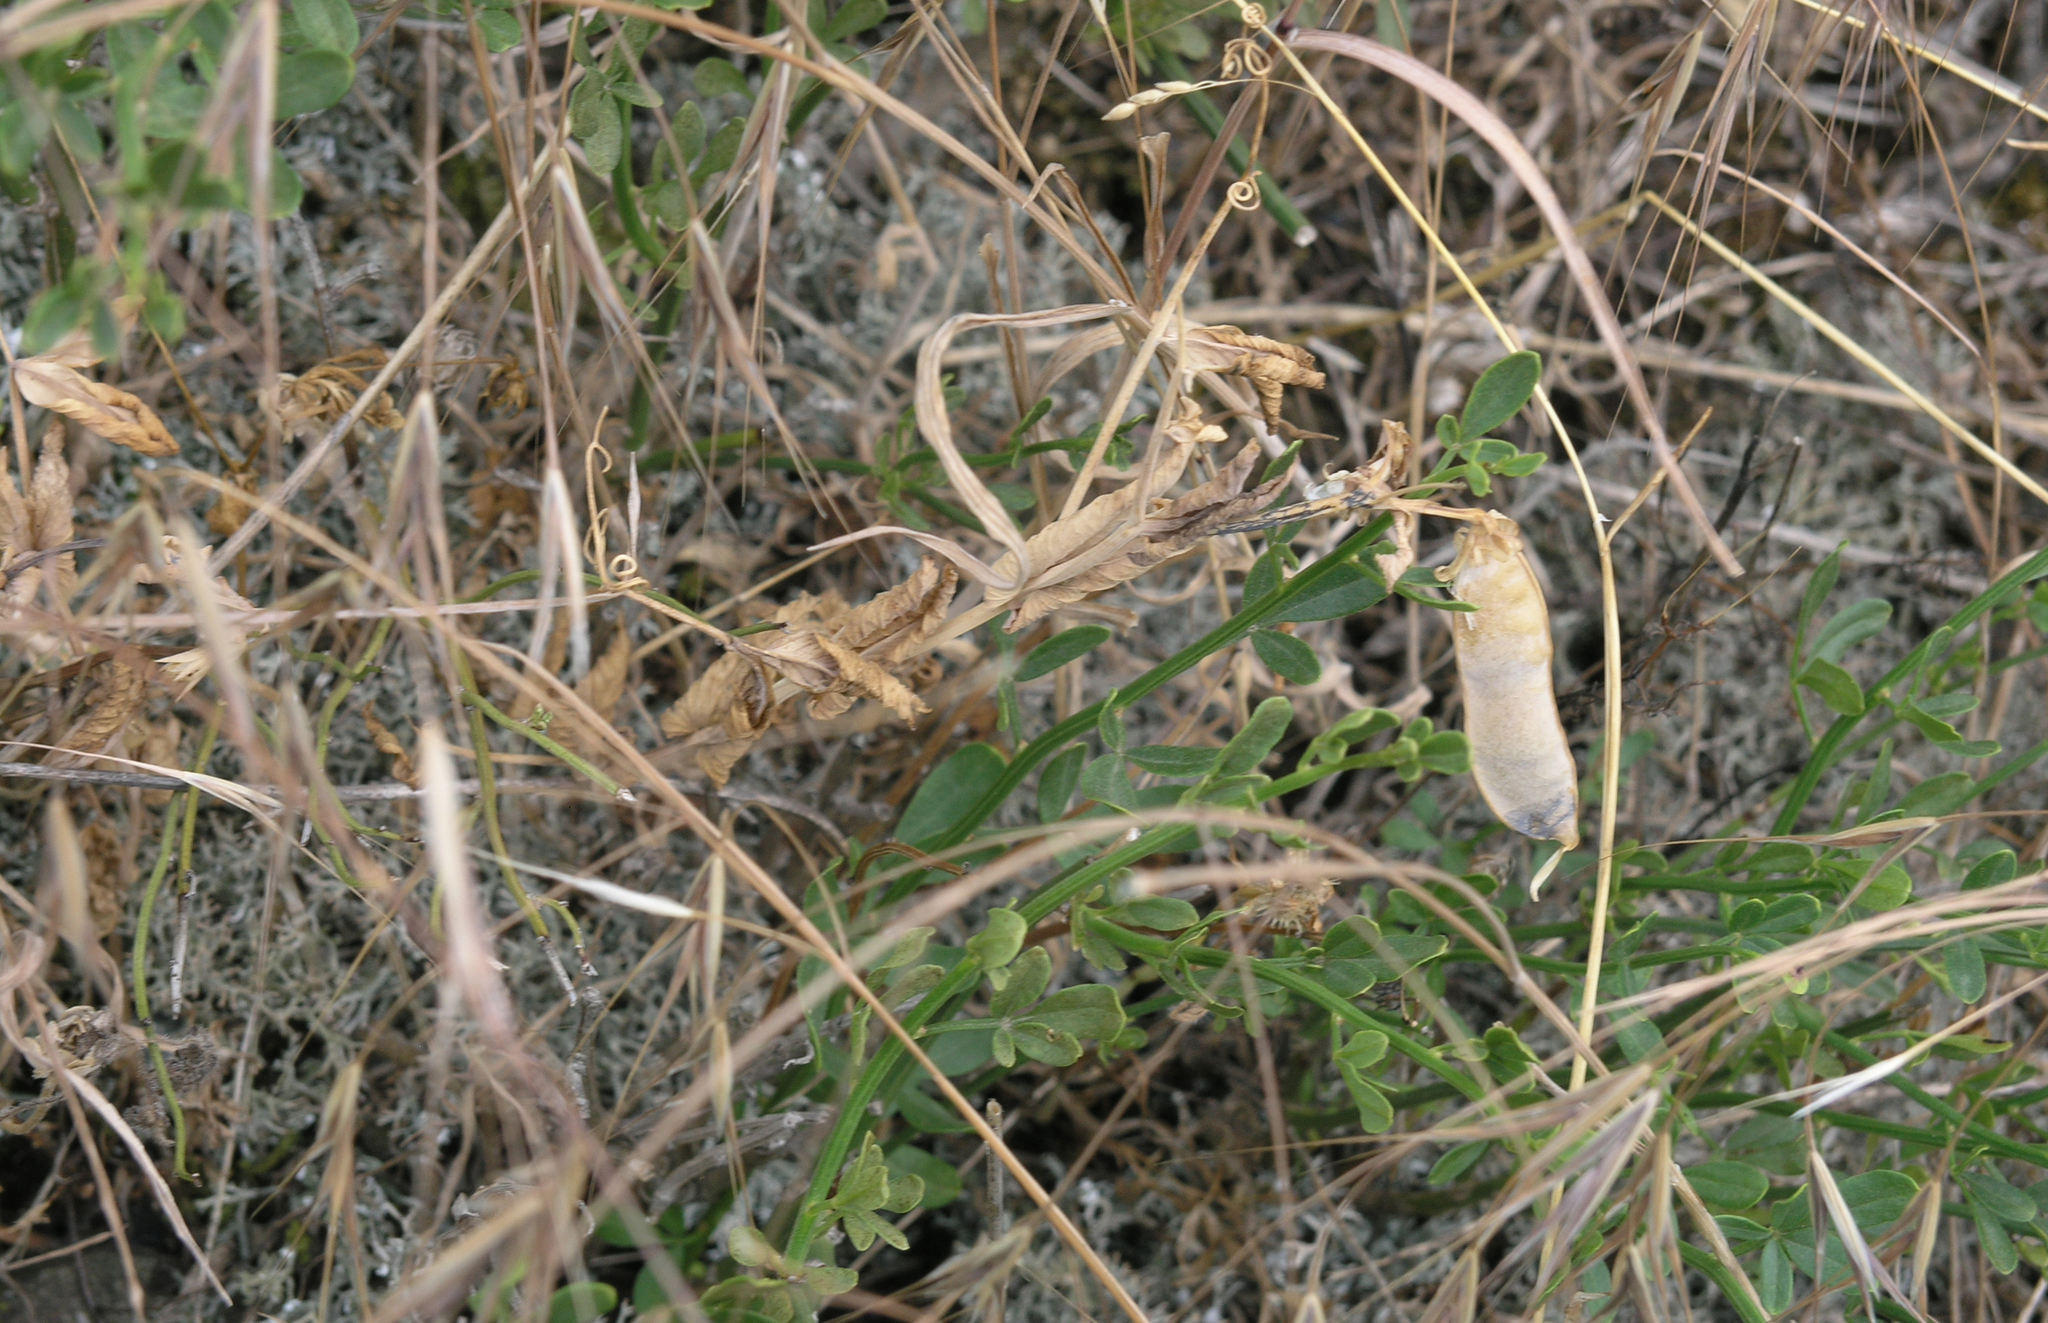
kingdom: Plantae
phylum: Tracheophyta
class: Magnoliopsida
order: Fabales
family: Fabaceae
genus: Lathyrus
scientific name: Lathyrus oleraceus
